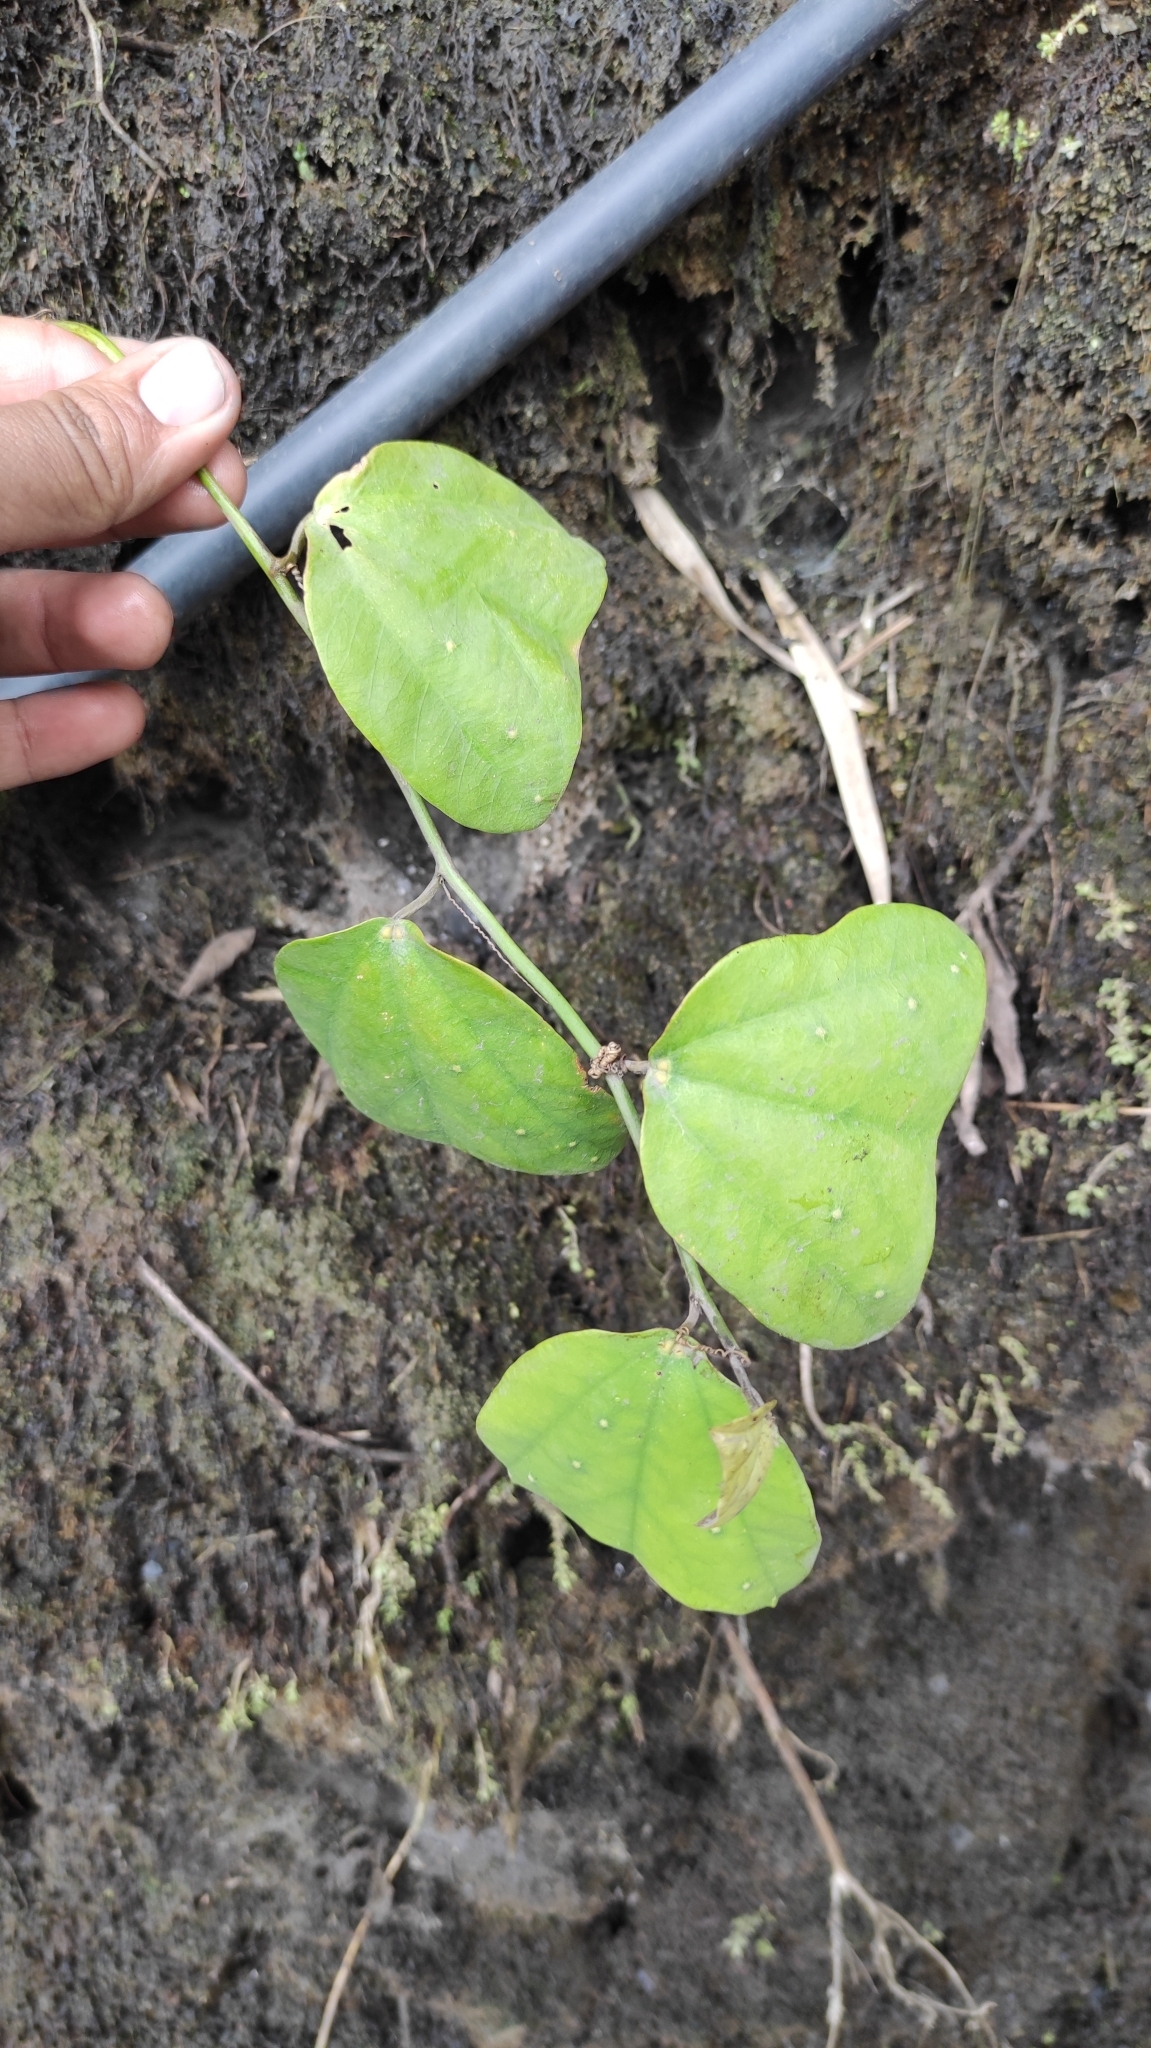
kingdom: Plantae
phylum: Tracheophyta
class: Magnoliopsida
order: Malpighiales
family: Passifloraceae
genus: Passiflora
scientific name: Passiflora micropetala
